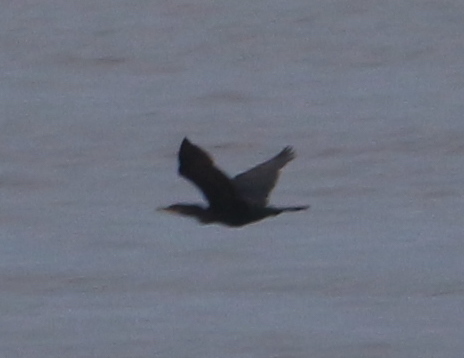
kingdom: Animalia
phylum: Chordata
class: Aves
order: Suliformes
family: Phalacrocoracidae
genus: Phalacrocorax
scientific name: Phalacrocorax brasilianus
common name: Neotropic cormorant
